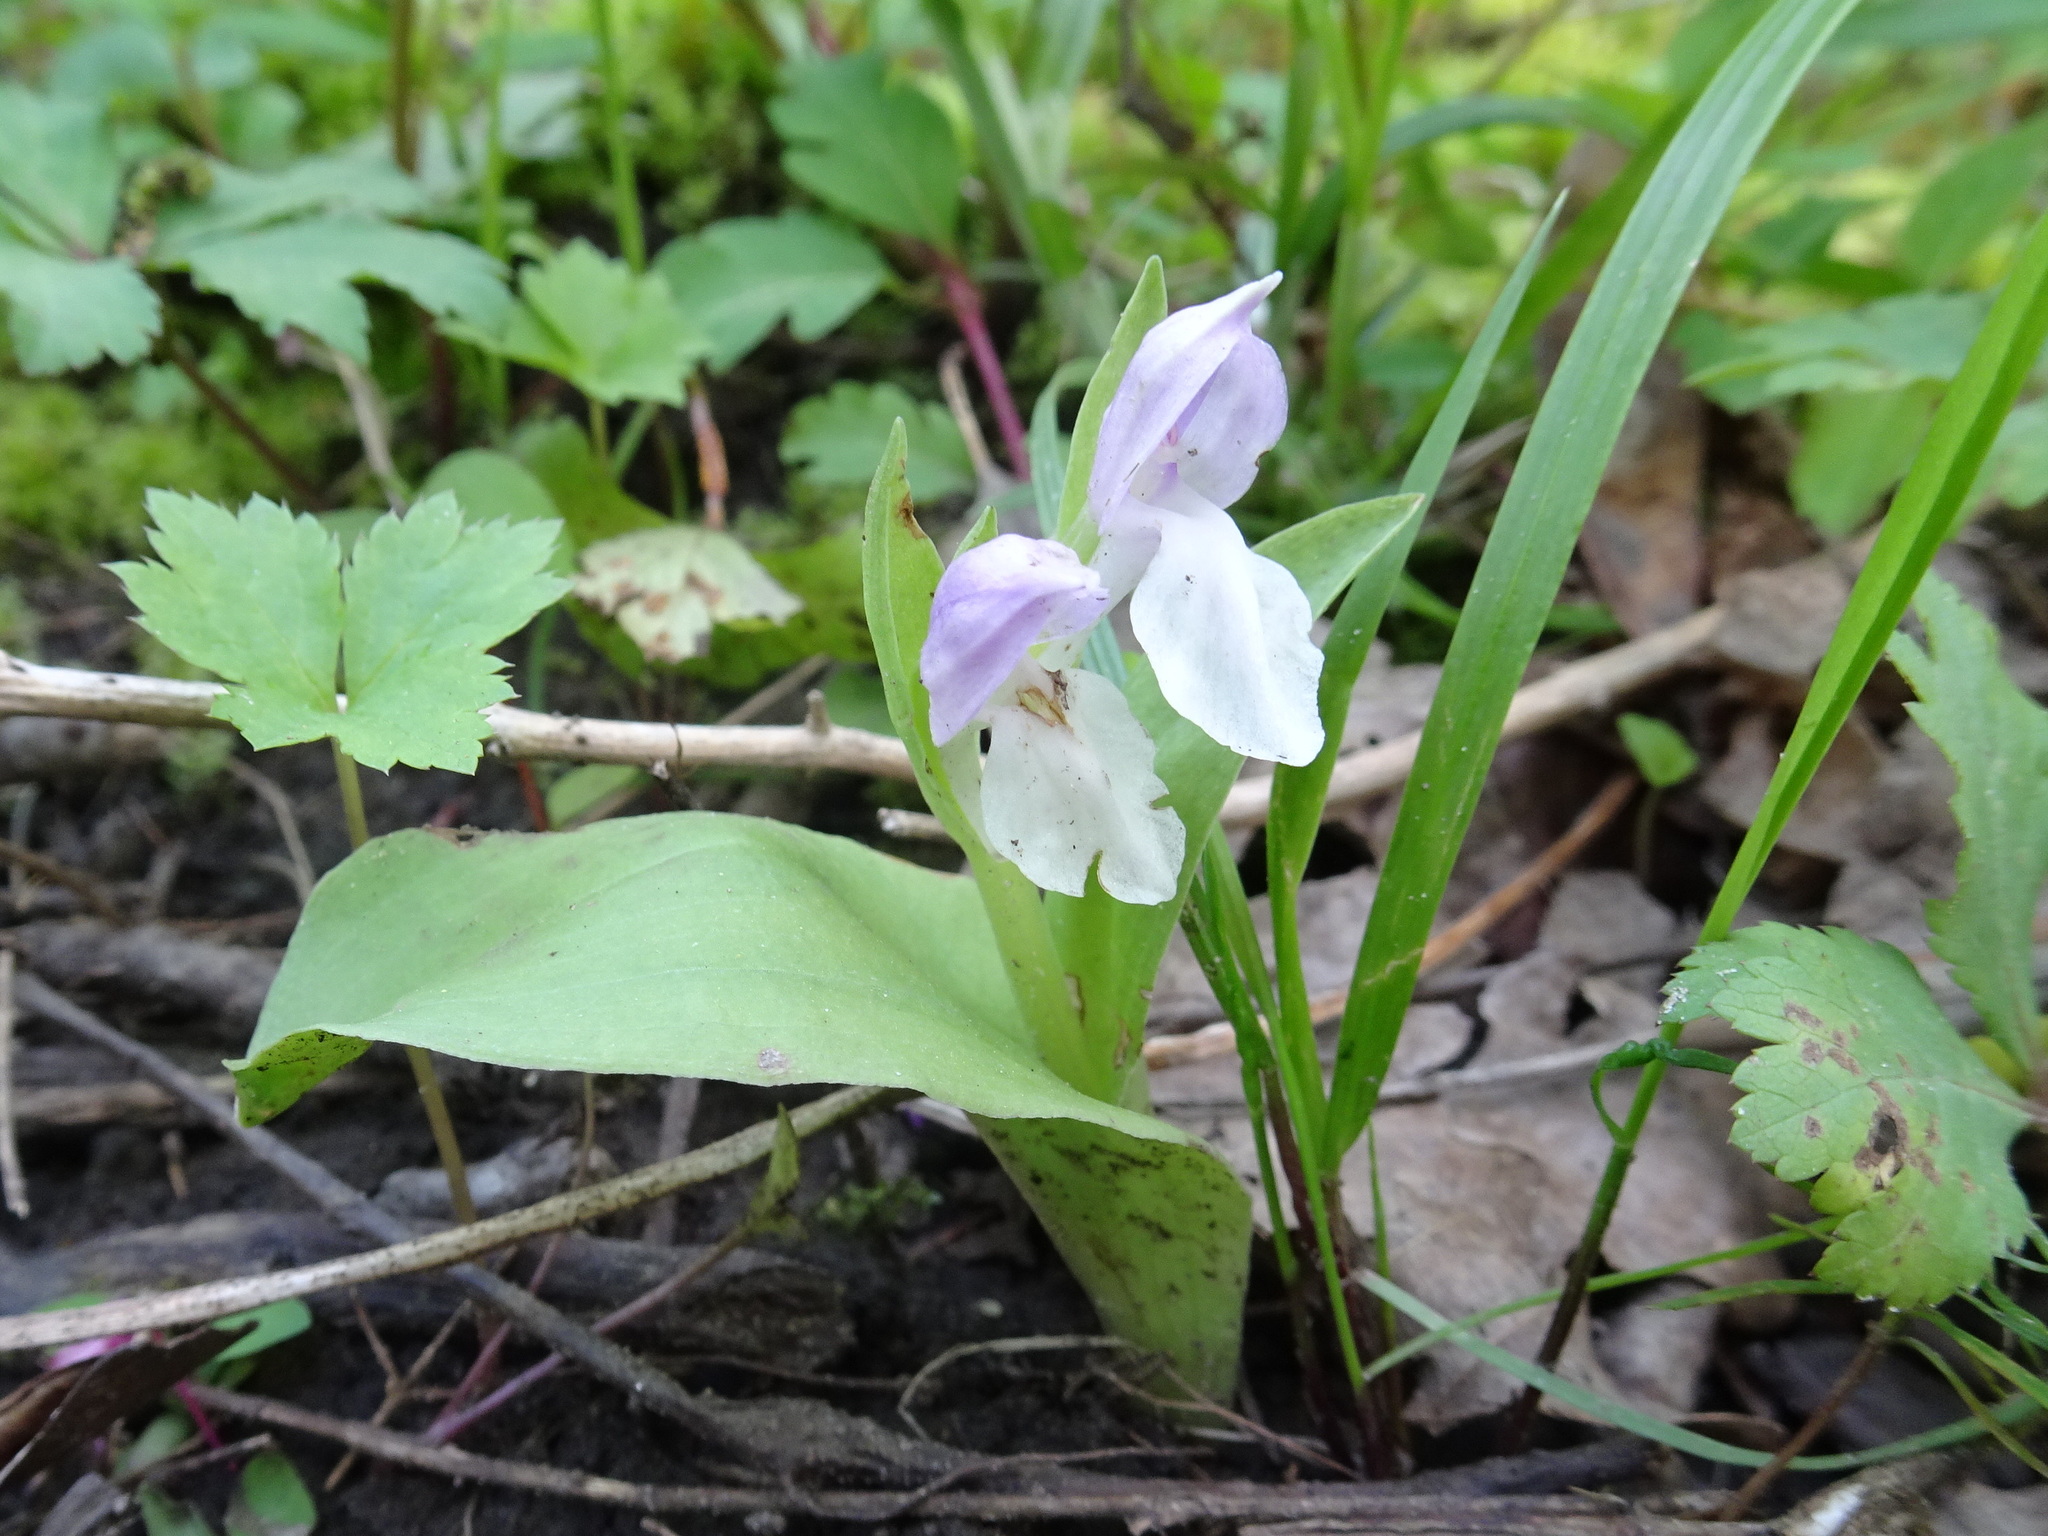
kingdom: Plantae
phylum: Tracheophyta
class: Liliopsida
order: Asparagales
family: Orchidaceae
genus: Galearis
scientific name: Galearis spectabilis
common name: Purple-hooded orchis
